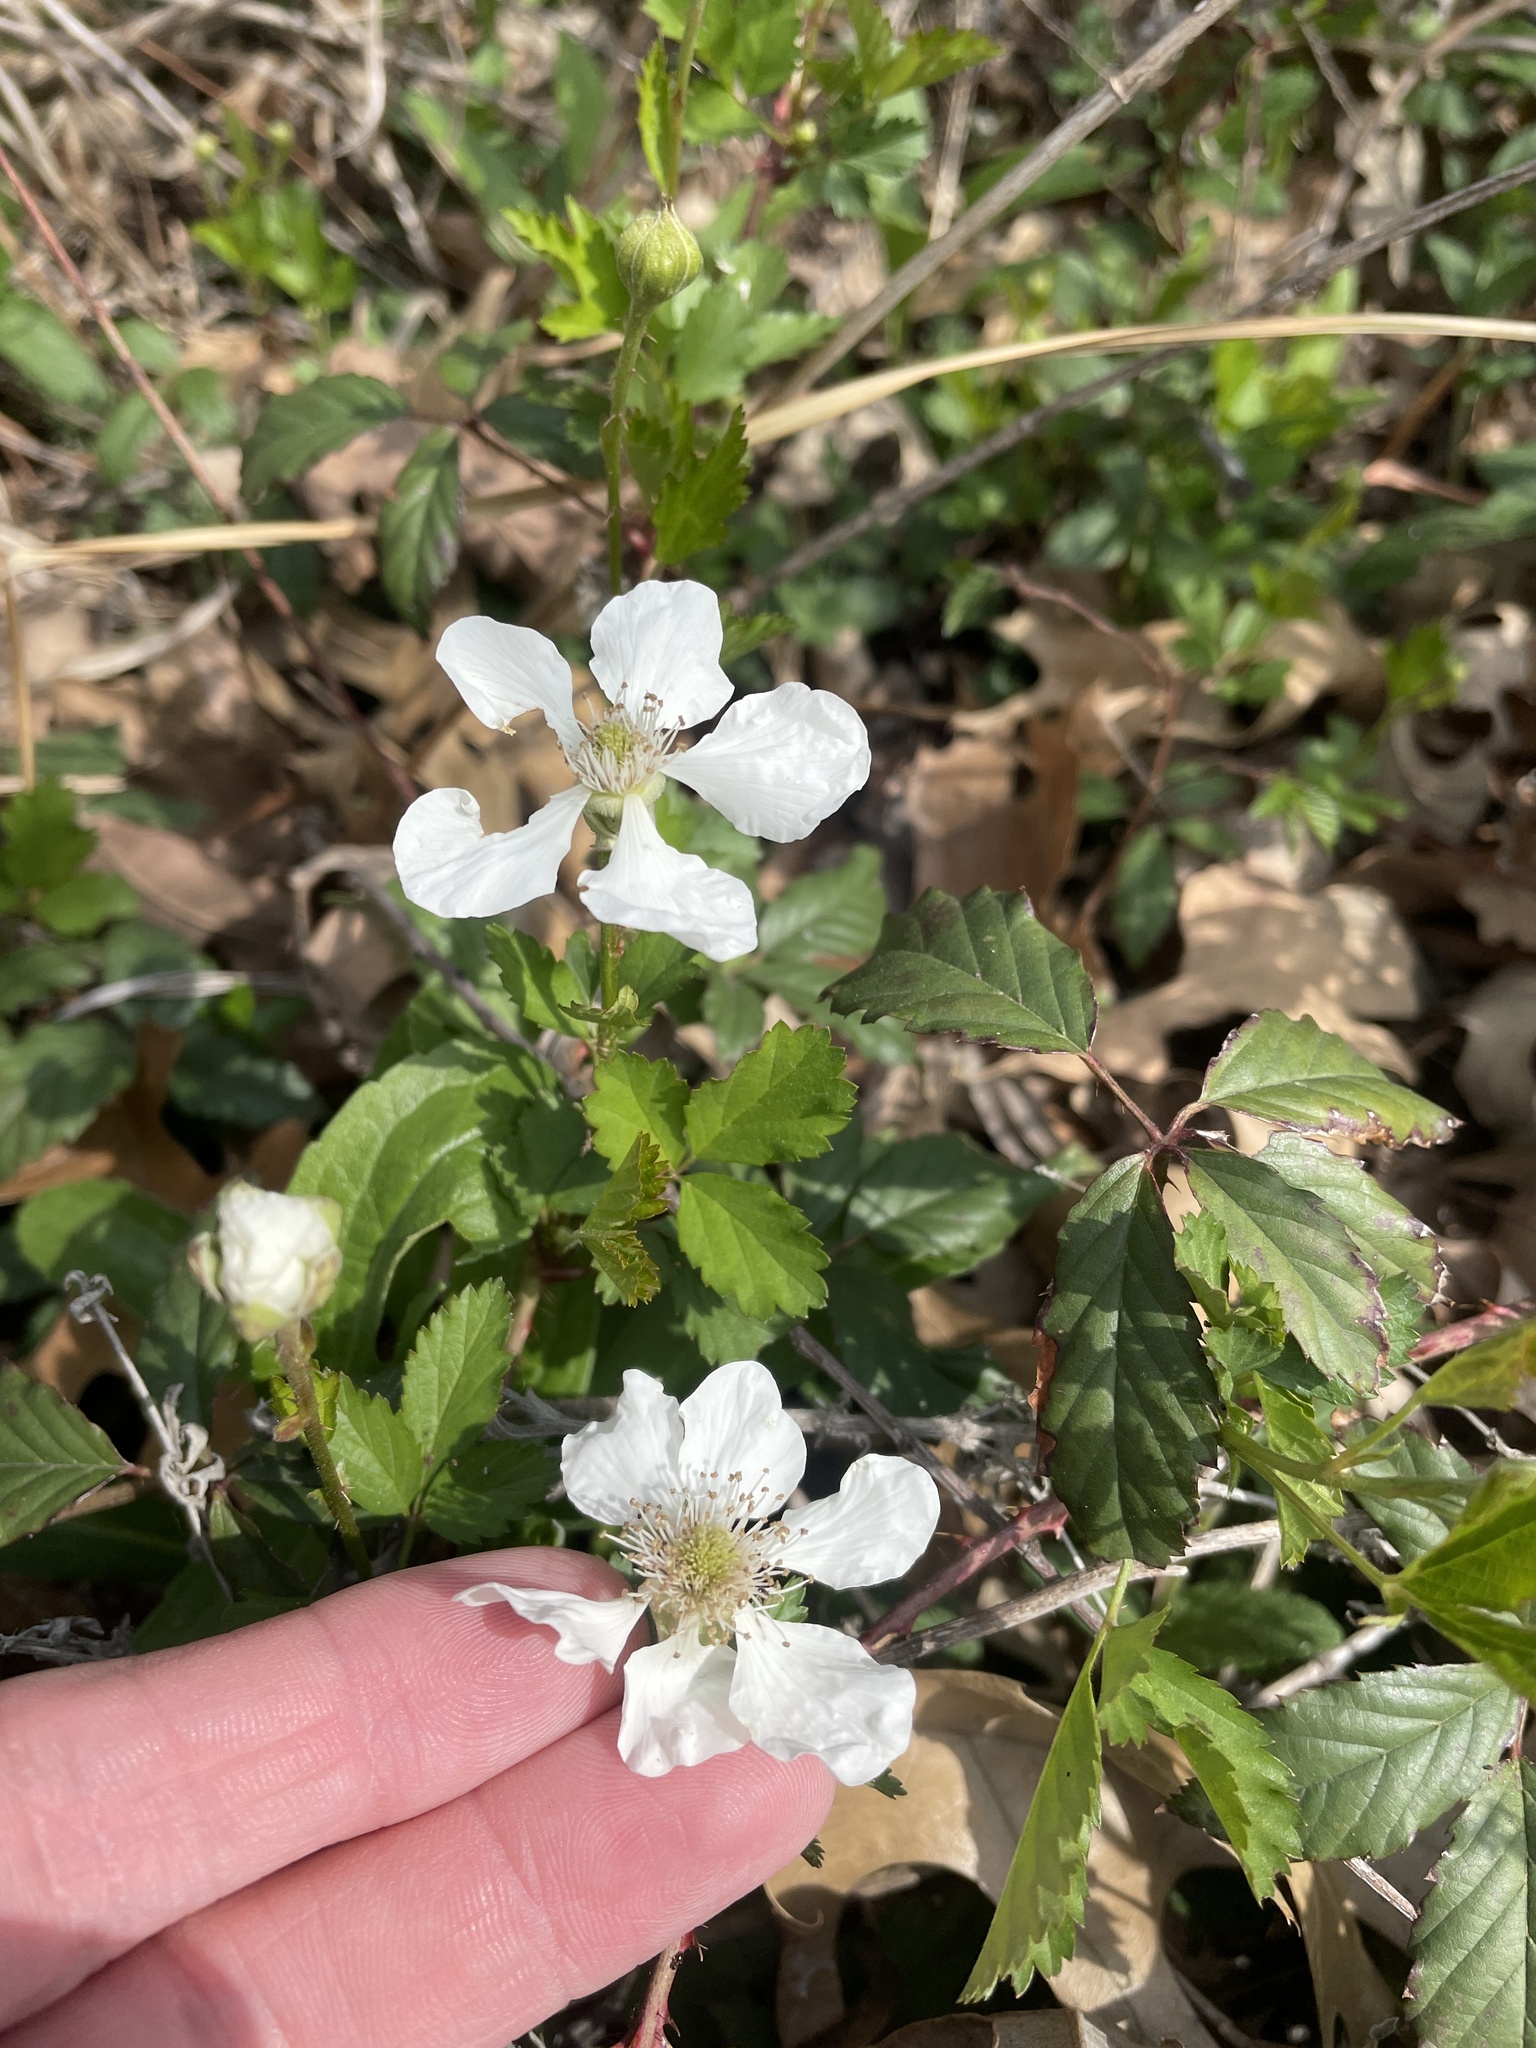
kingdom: Plantae
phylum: Tracheophyta
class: Magnoliopsida
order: Rosales
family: Rosaceae
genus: Rubus
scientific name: Rubus trivialis
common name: Southern dewberry
